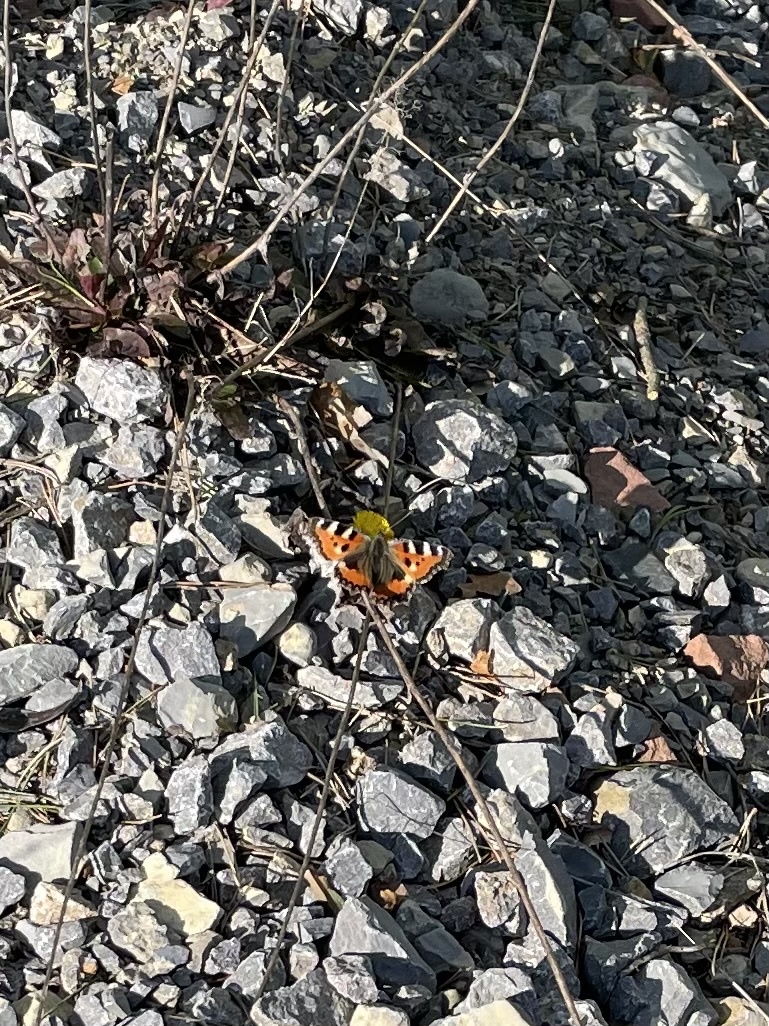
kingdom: Animalia
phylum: Arthropoda
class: Insecta
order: Lepidoptera
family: Nymphalidae
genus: Aglais
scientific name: Aglais urticae
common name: Small tortoiseshell
